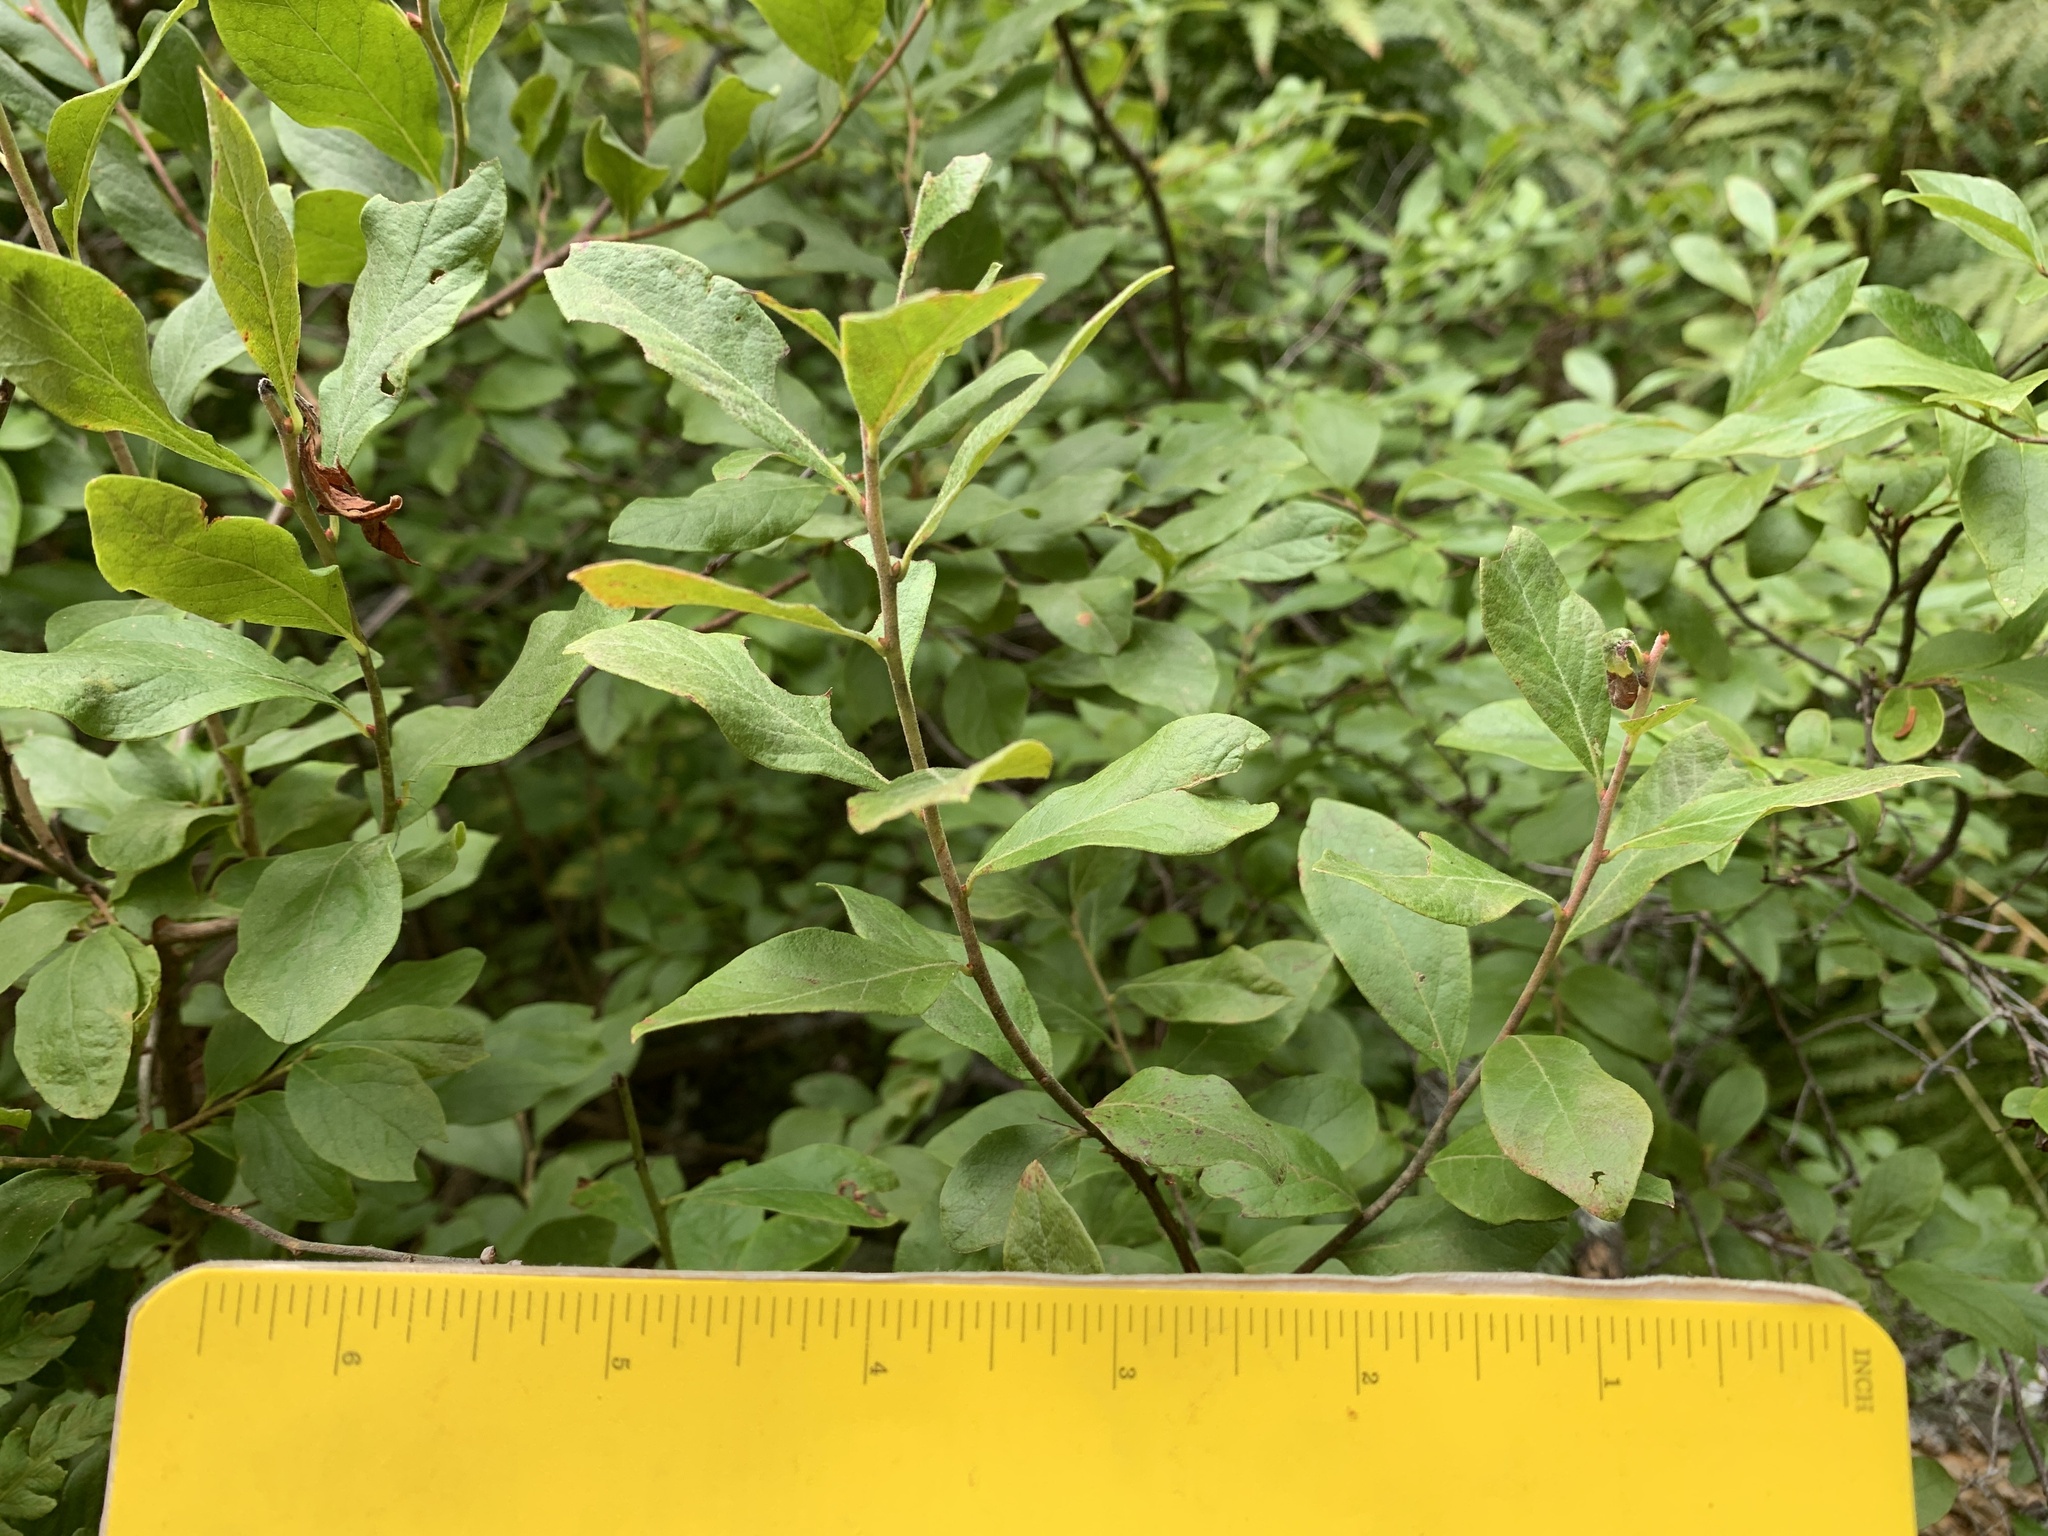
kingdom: Plantae
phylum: Tracheophyta
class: Magnoliopsida
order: Ericales
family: Ericaceae
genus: Gaylussacia
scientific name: Gaylussacia baccata
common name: Black huckleberry
